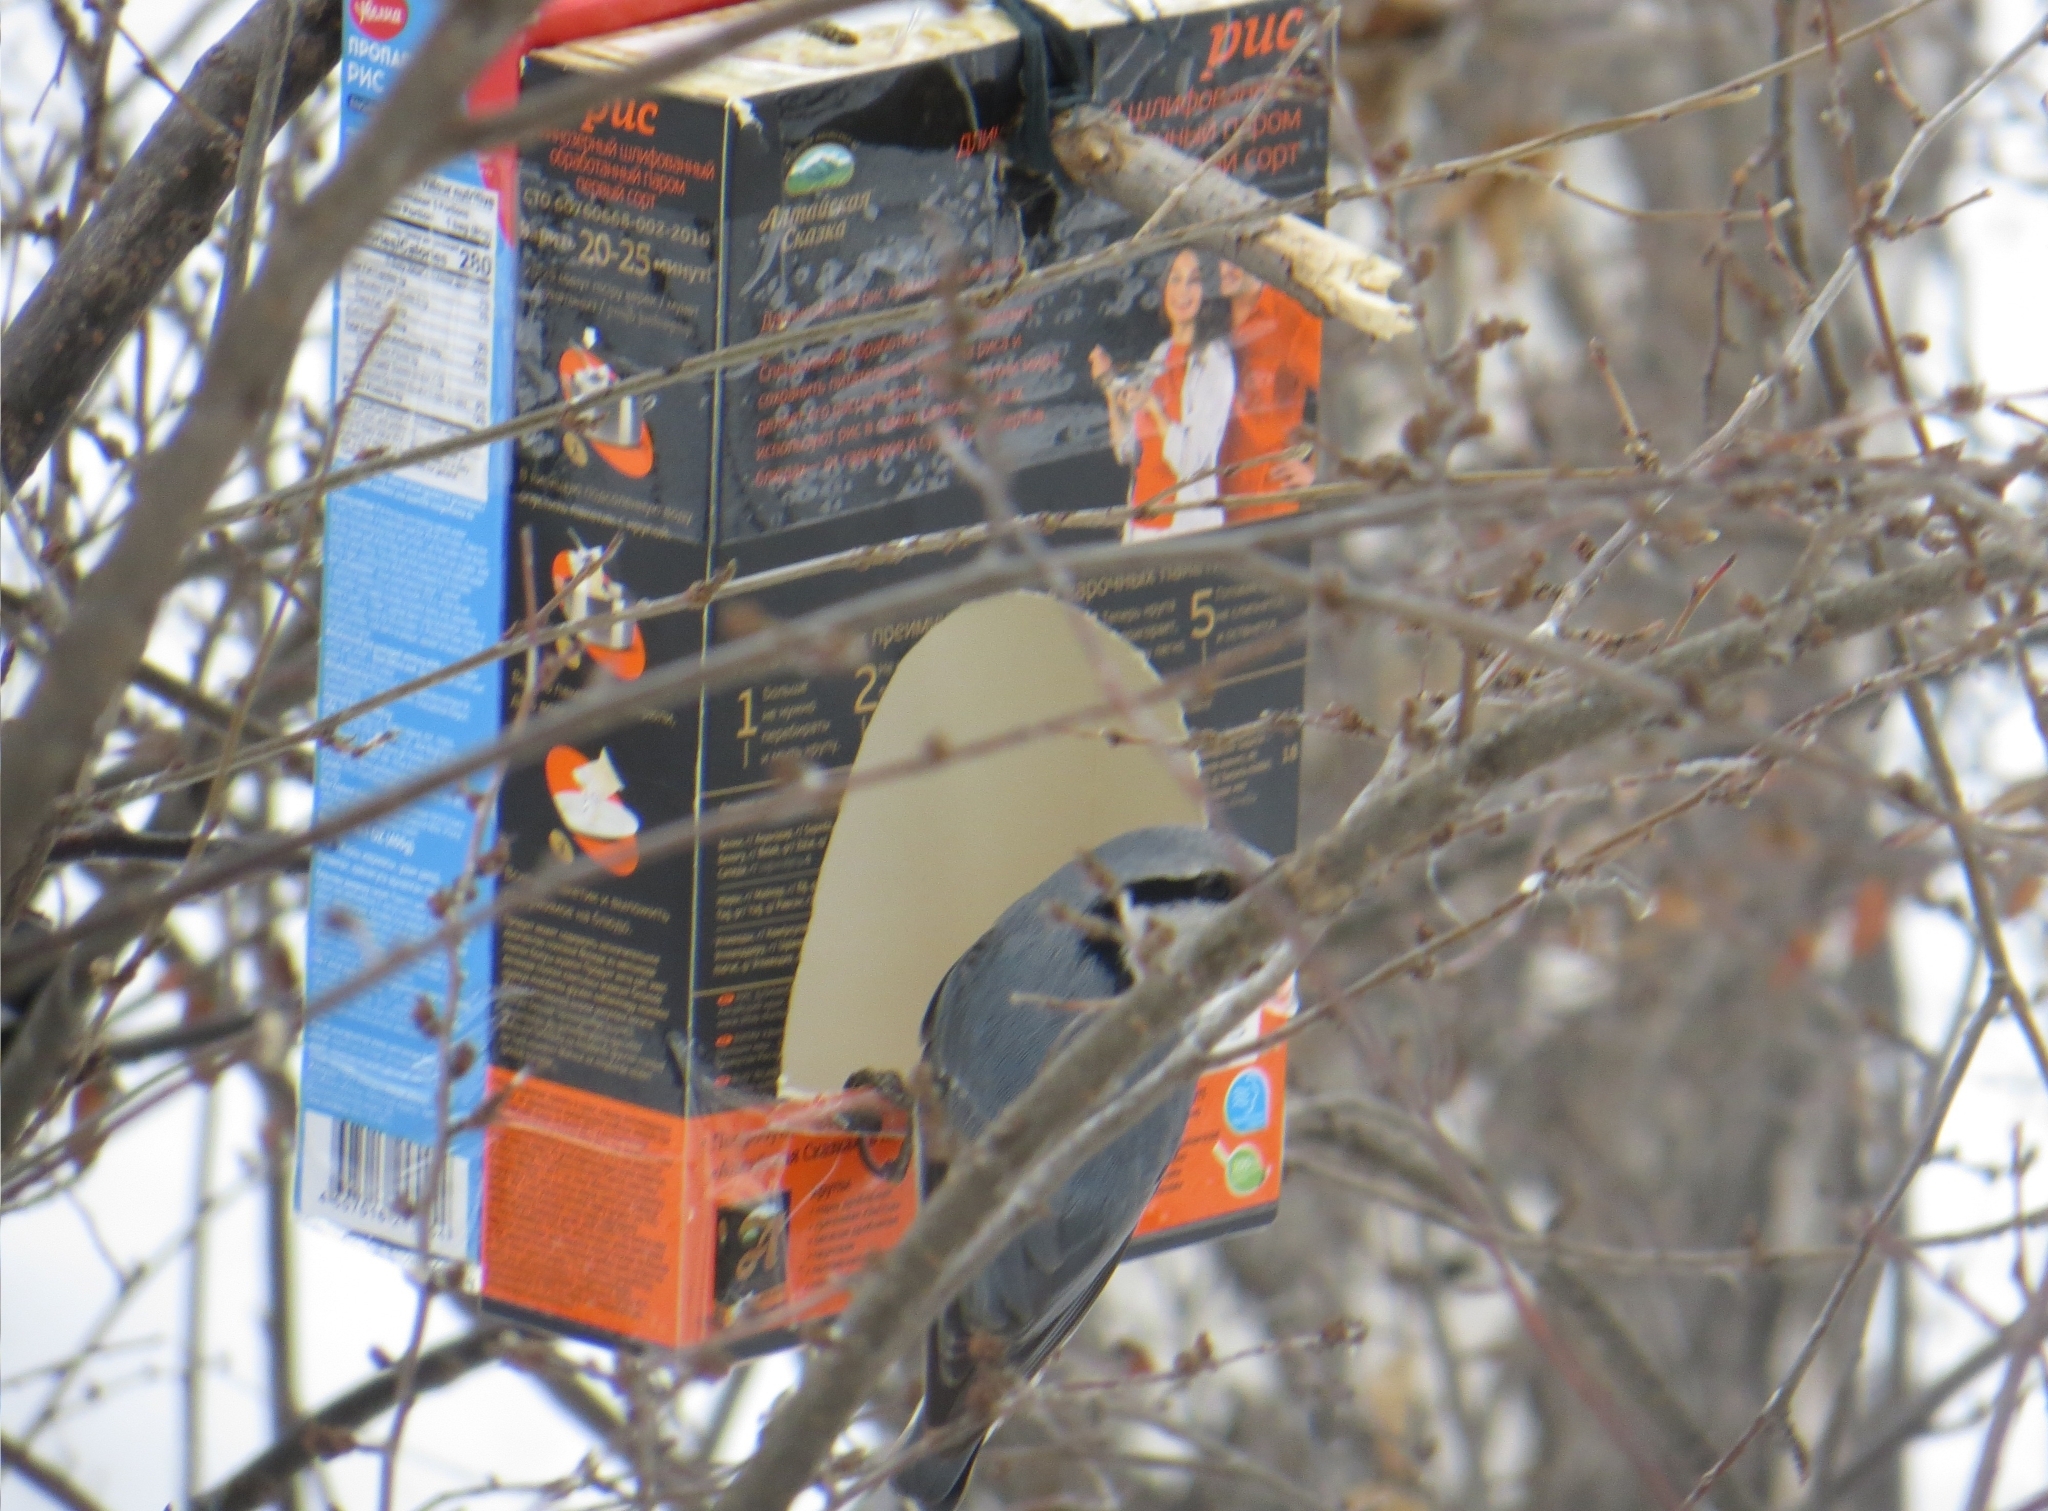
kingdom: Animalia
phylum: Chordata
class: Aves
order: Passeriformes
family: Sittidae
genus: Sitta
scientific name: Sitta europaea
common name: Eurasian nuthatch
